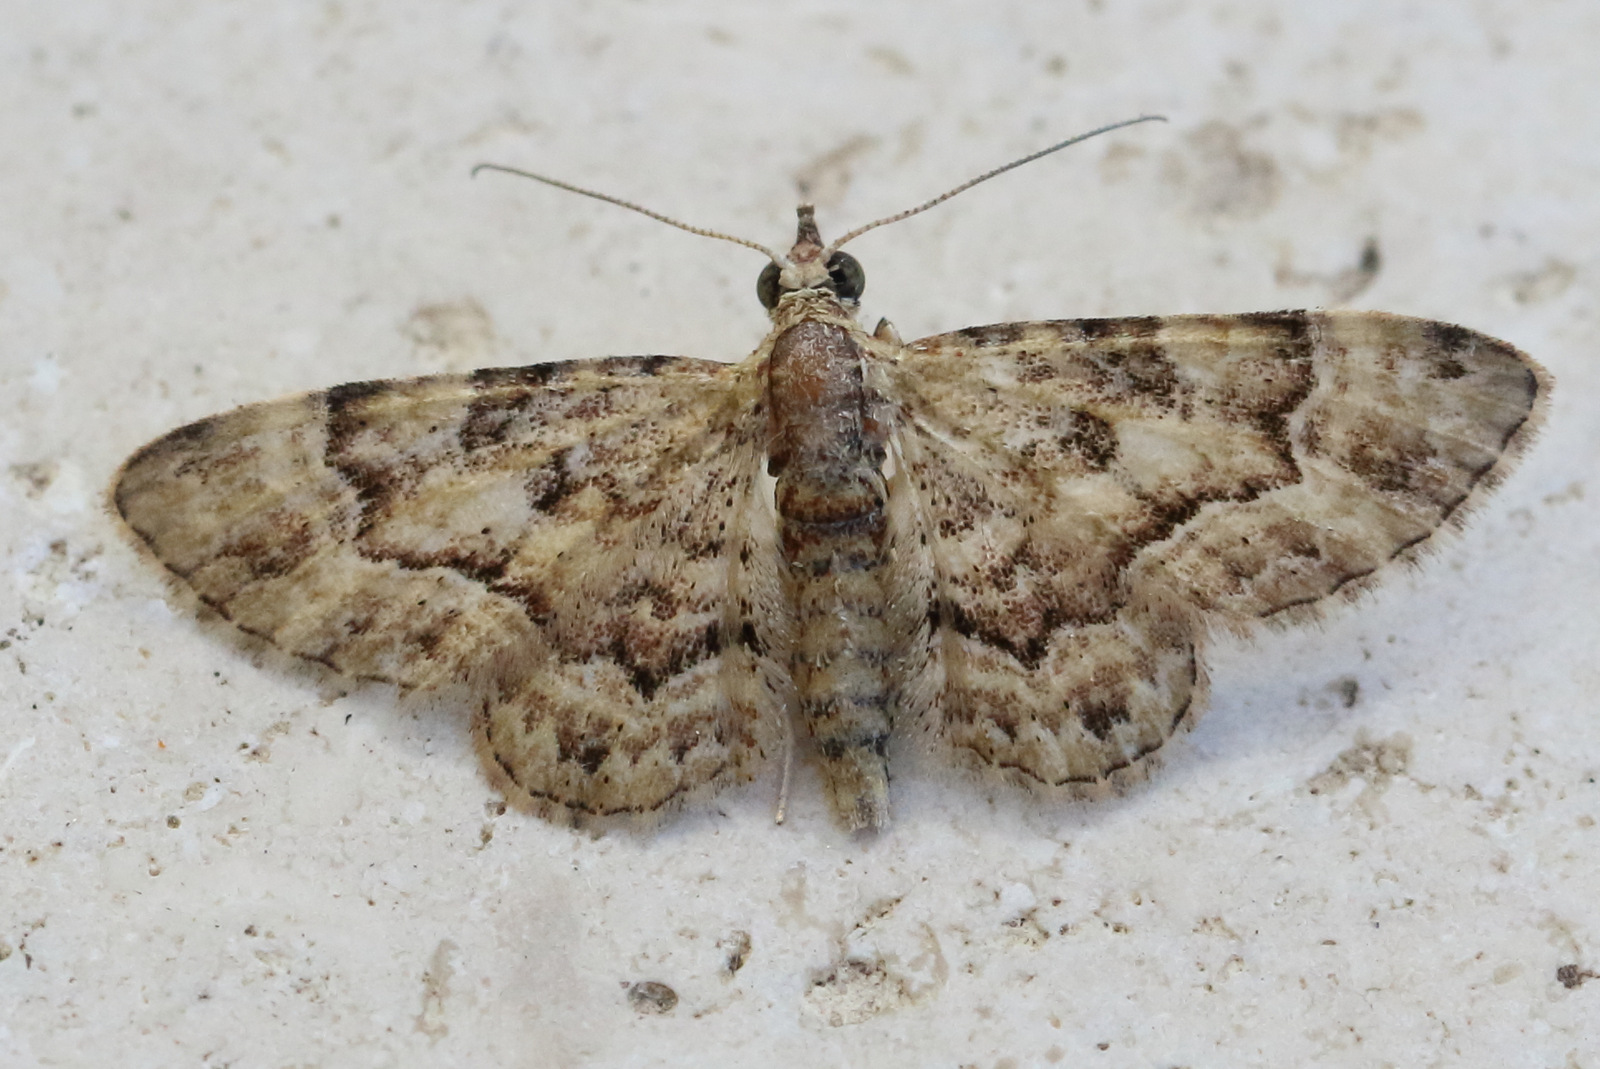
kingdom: Animalia
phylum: Arthropoda
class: Insecta
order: Lepidoptera
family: Geometridae
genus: Gymnoscelis
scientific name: Gymnoscelis lophopus
